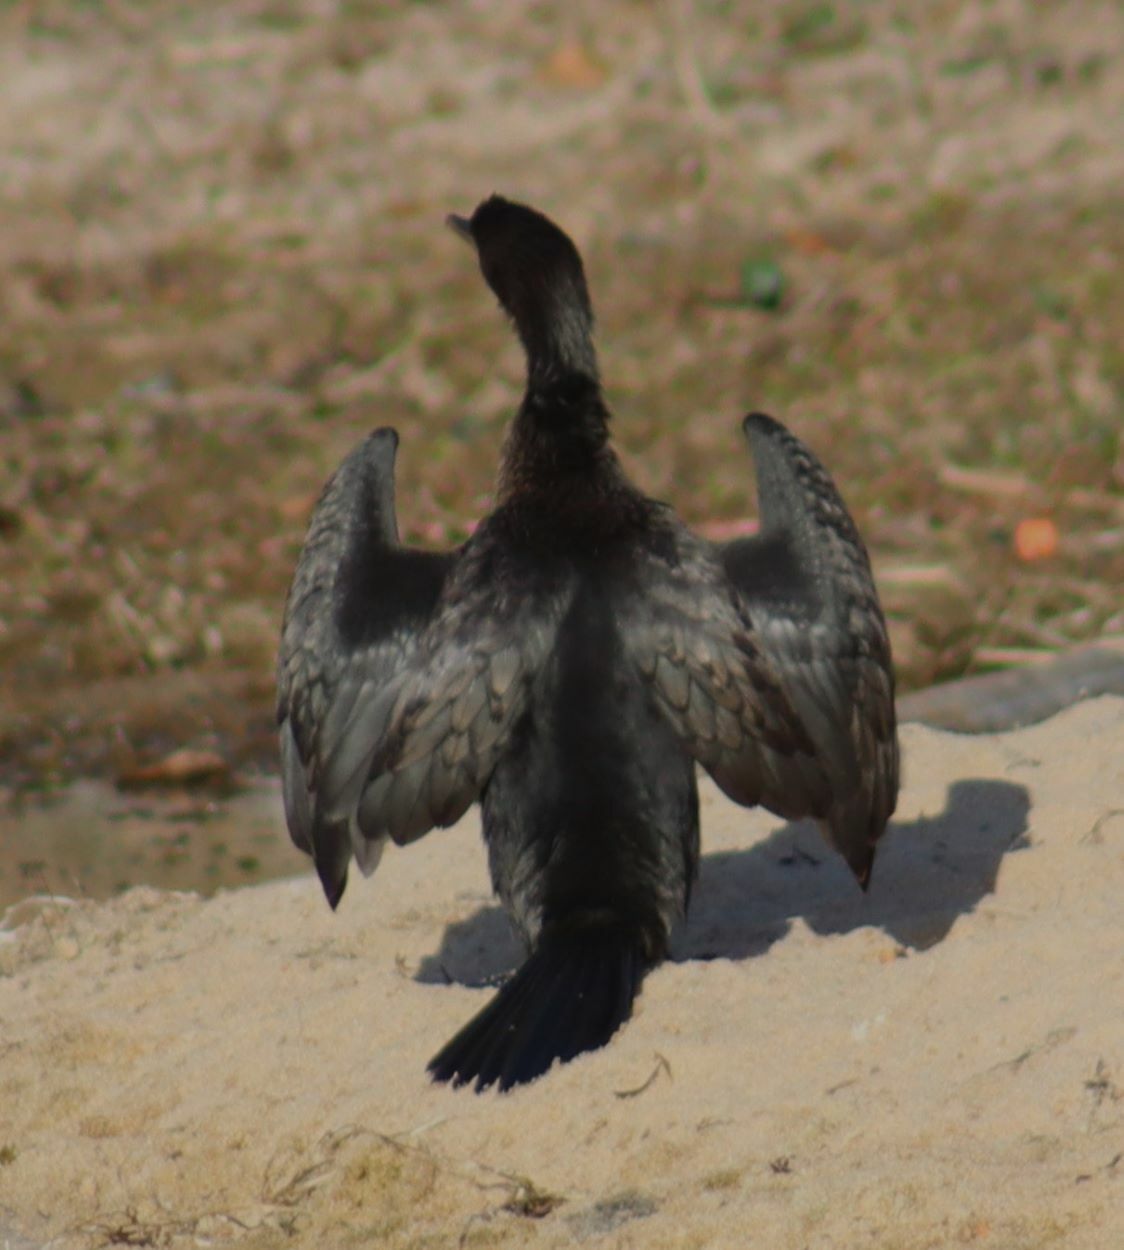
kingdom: Animalia
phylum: Chordata
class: Aves
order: Suliformes
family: Phalacrocoracidae
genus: Microcarbo
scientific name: Microcarbo africanus
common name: Long-tailed cormorant
